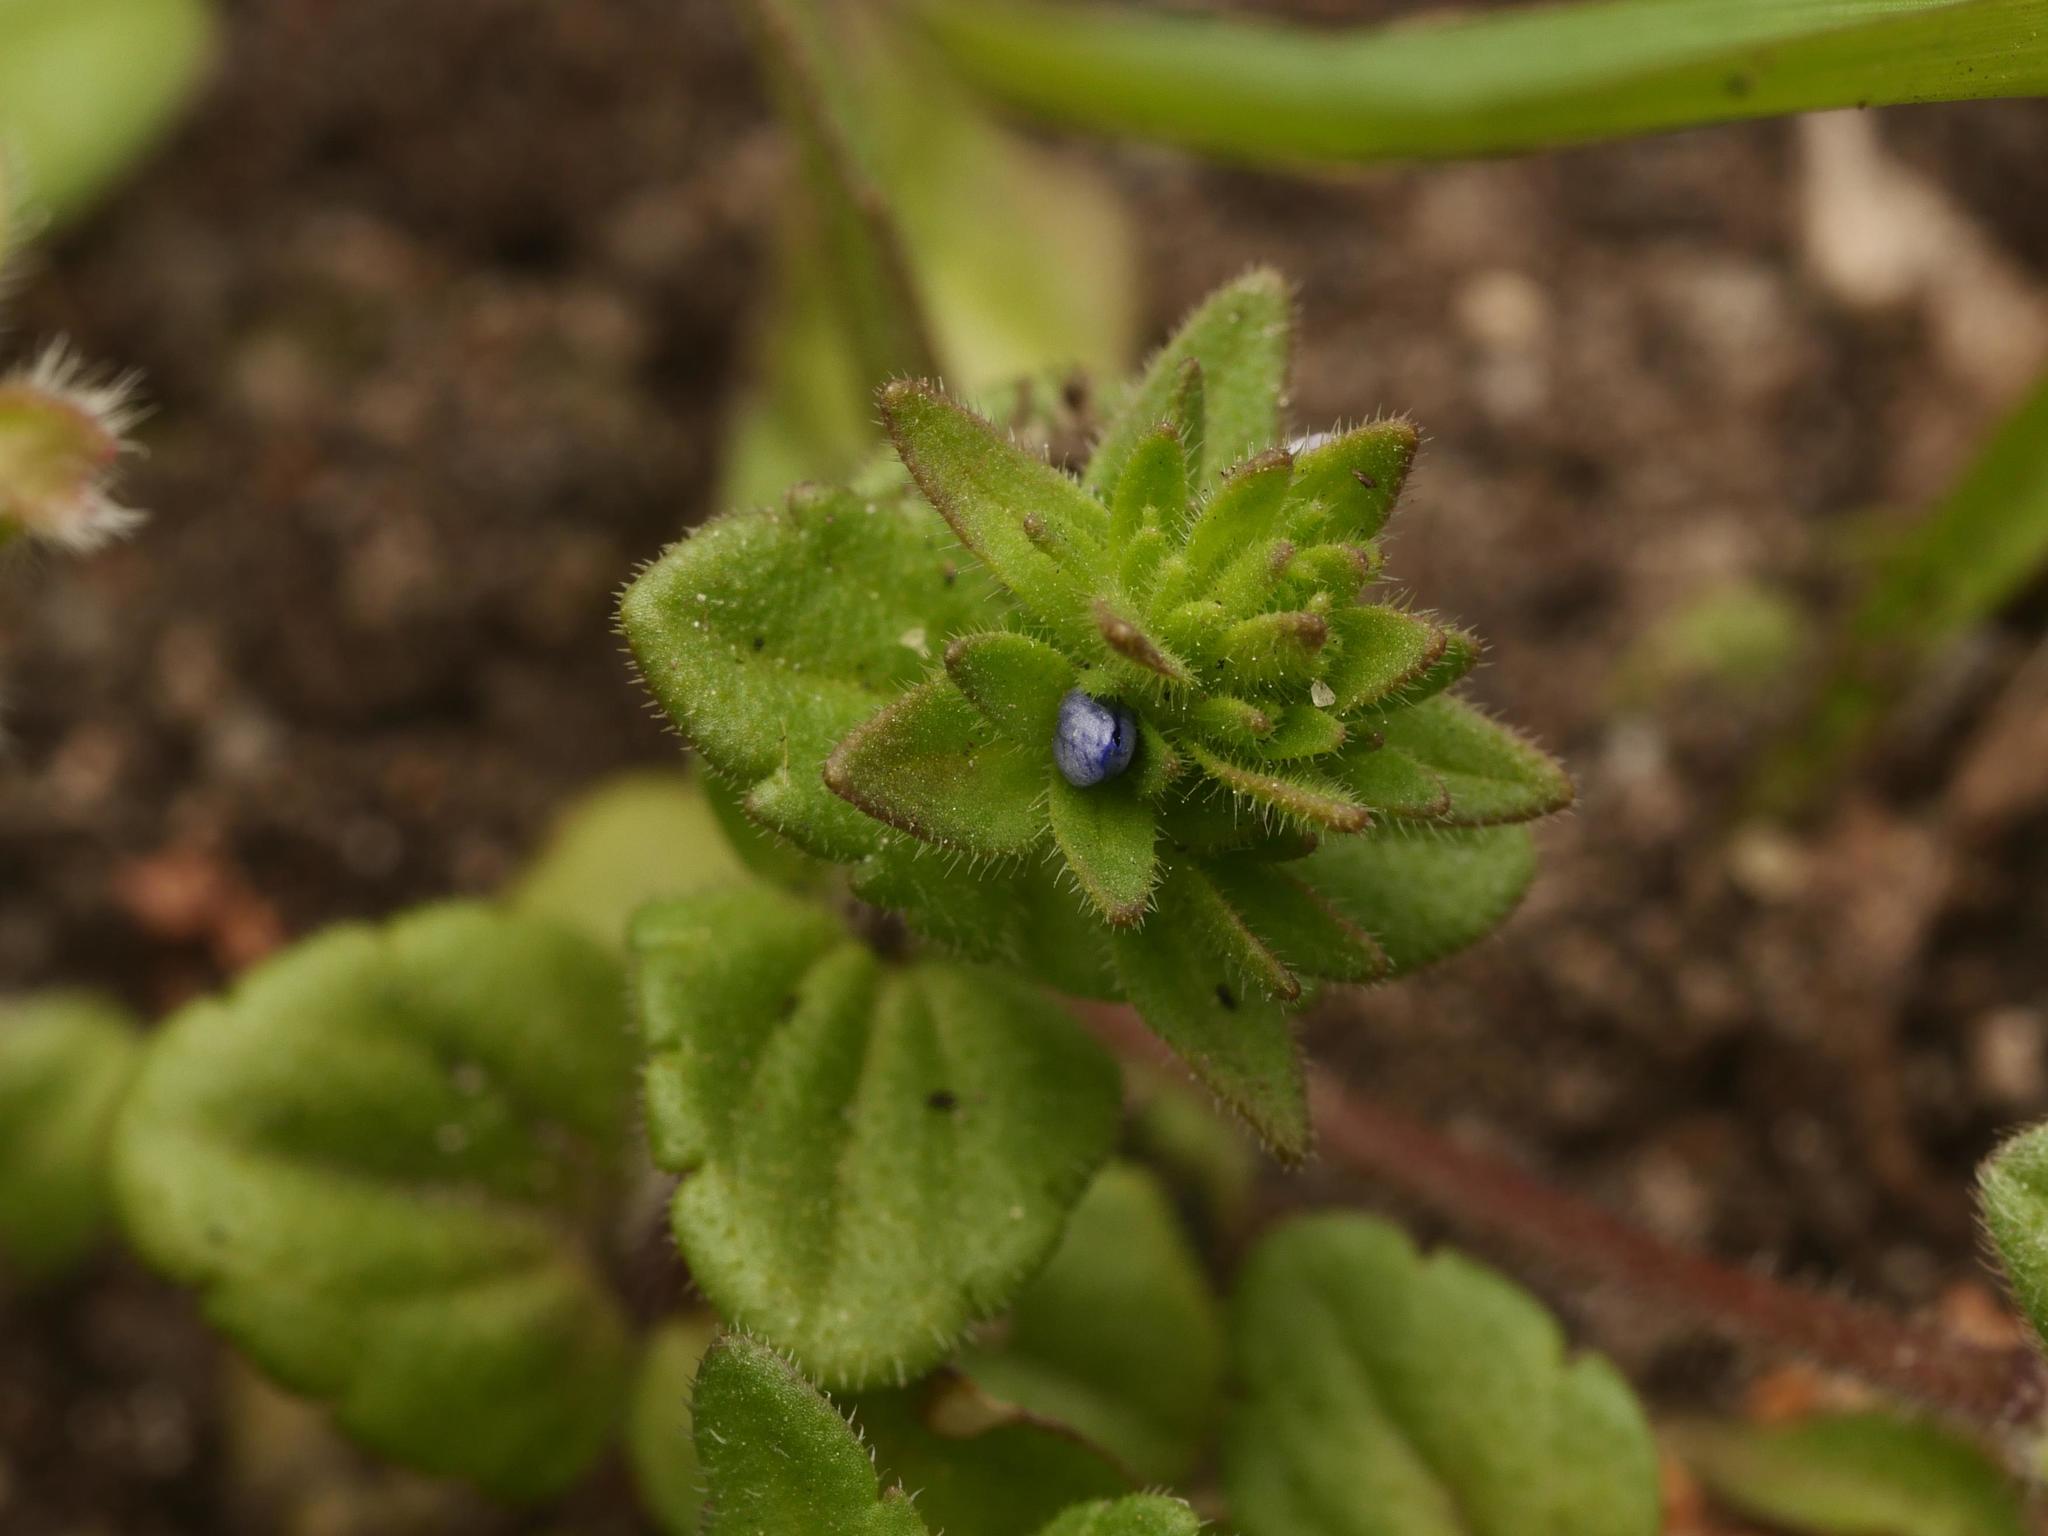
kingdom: Plantae
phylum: Tracheophyta
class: Magnoliopsida
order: Lamiales
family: Plantaginaceae
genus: Veronica
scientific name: Veronica arvensis
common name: Corn speedwell
